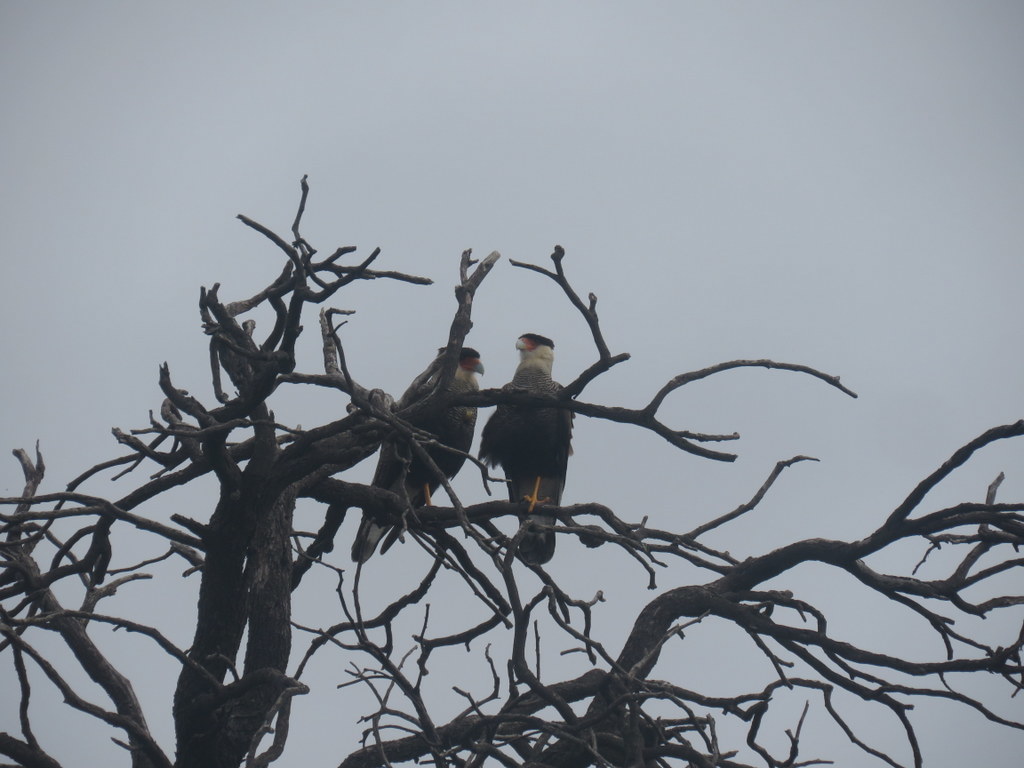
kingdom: Animalia
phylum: Chordata
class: Aves
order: Falconiformes
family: Falconidae
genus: Caracara
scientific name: Caracara plancus
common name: Southern caracara
